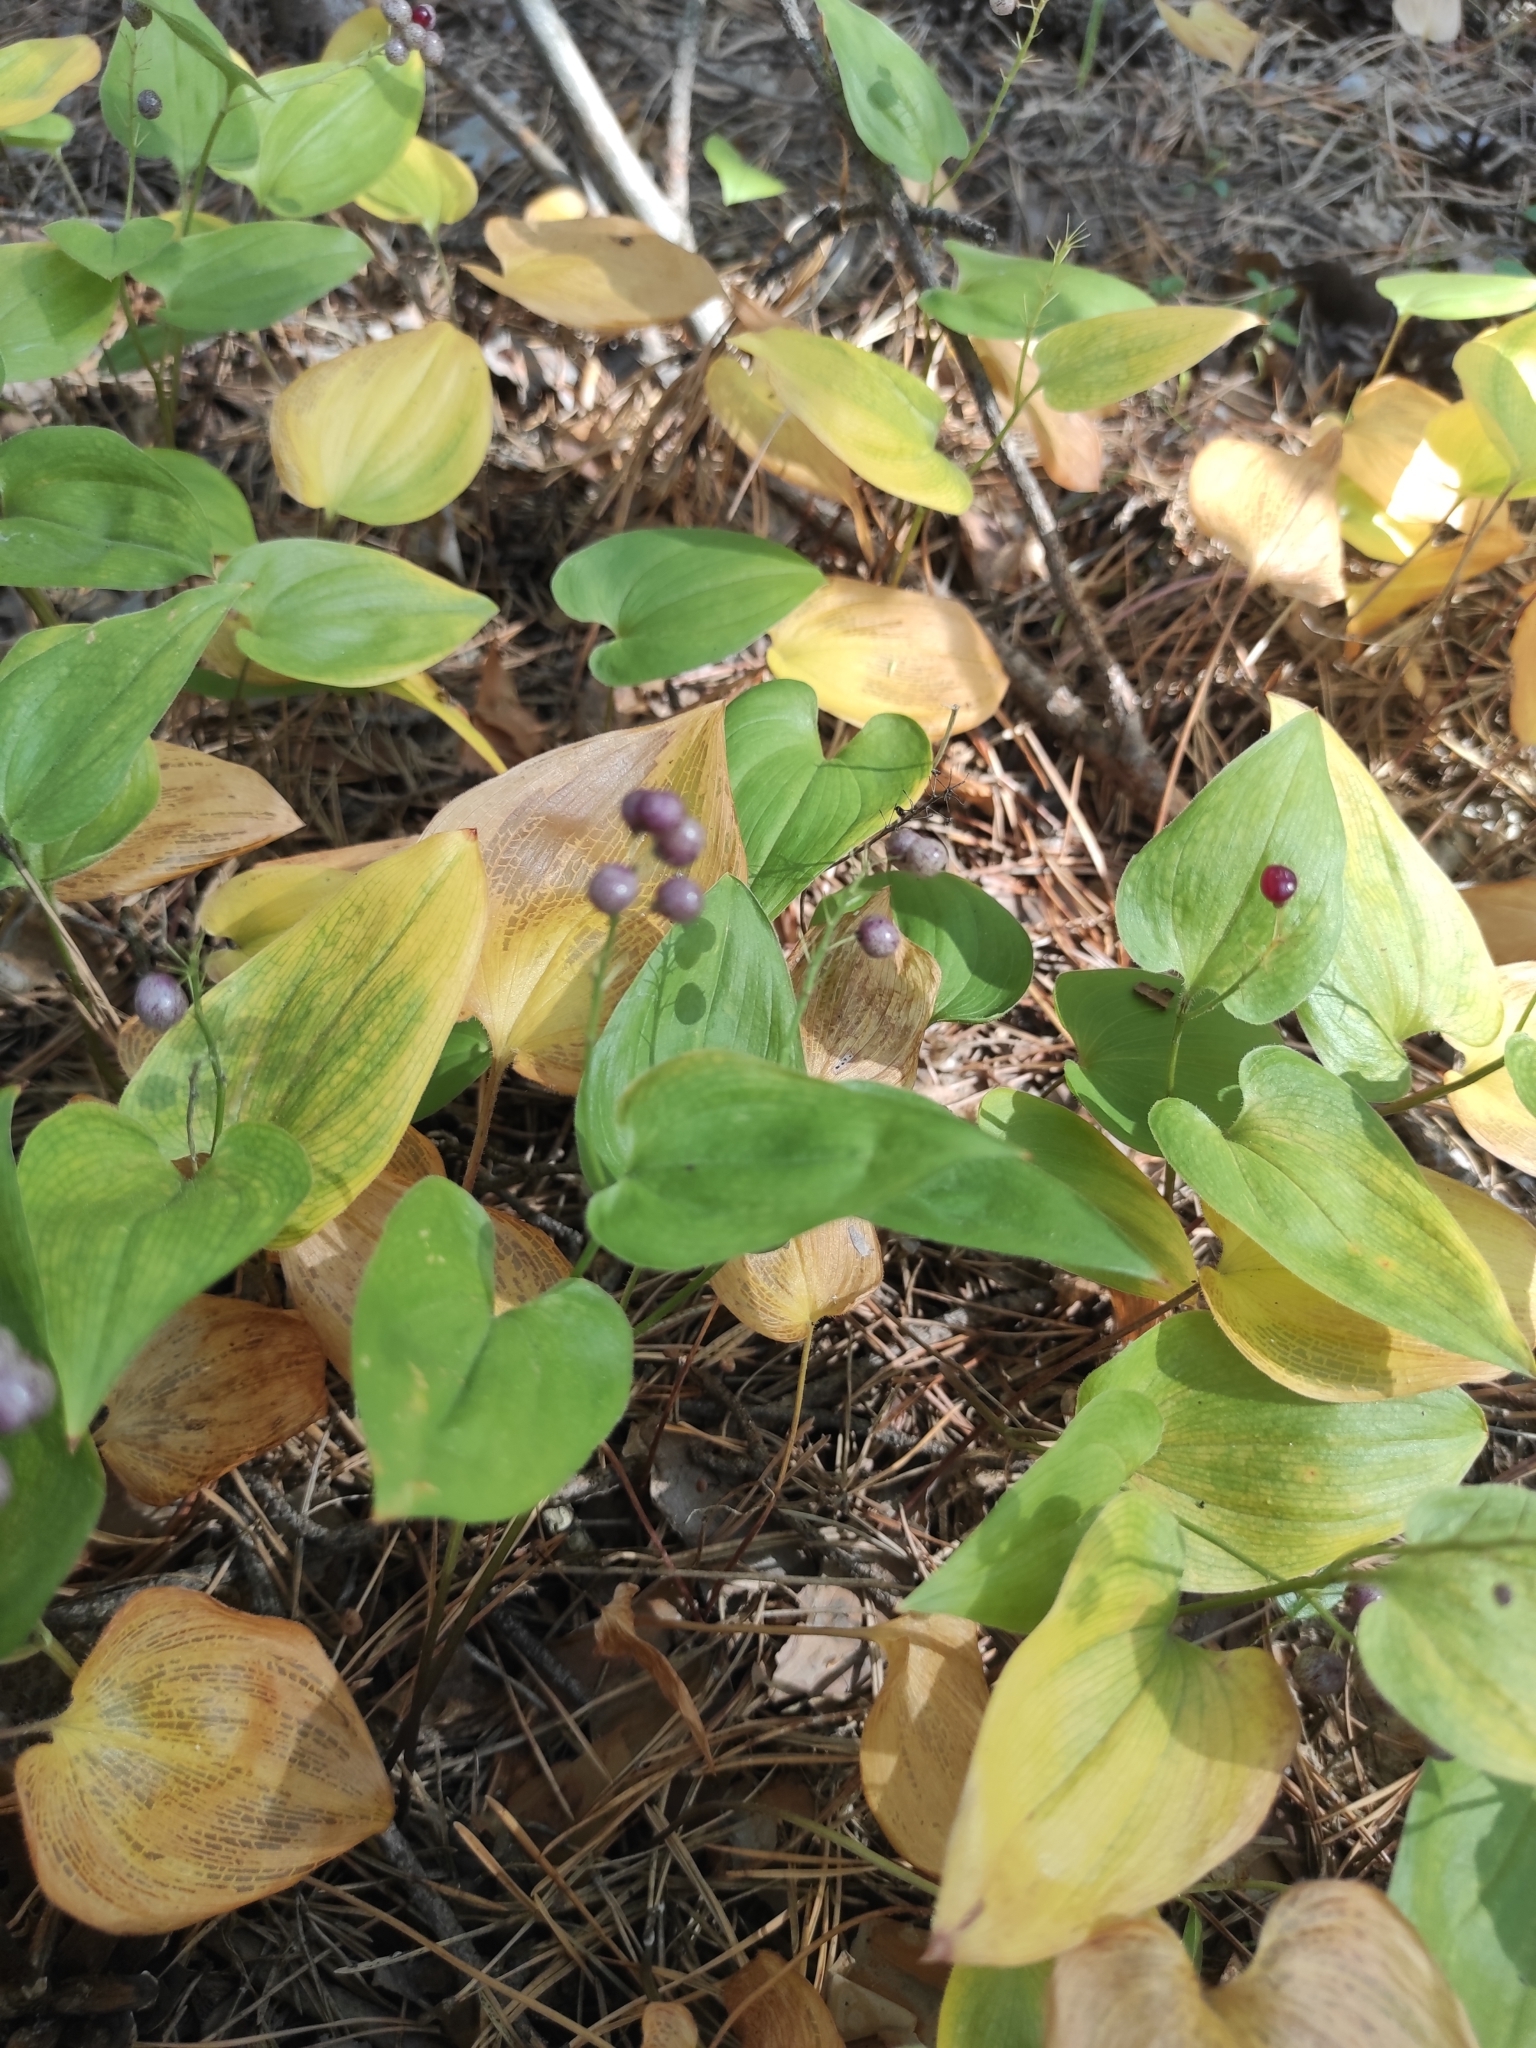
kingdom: Plantae
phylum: Tracheophyta
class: Liliopsida
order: Asparagales
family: Asparagaceae
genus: Maianthemum
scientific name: Maianthemum bifolium
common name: May lily
